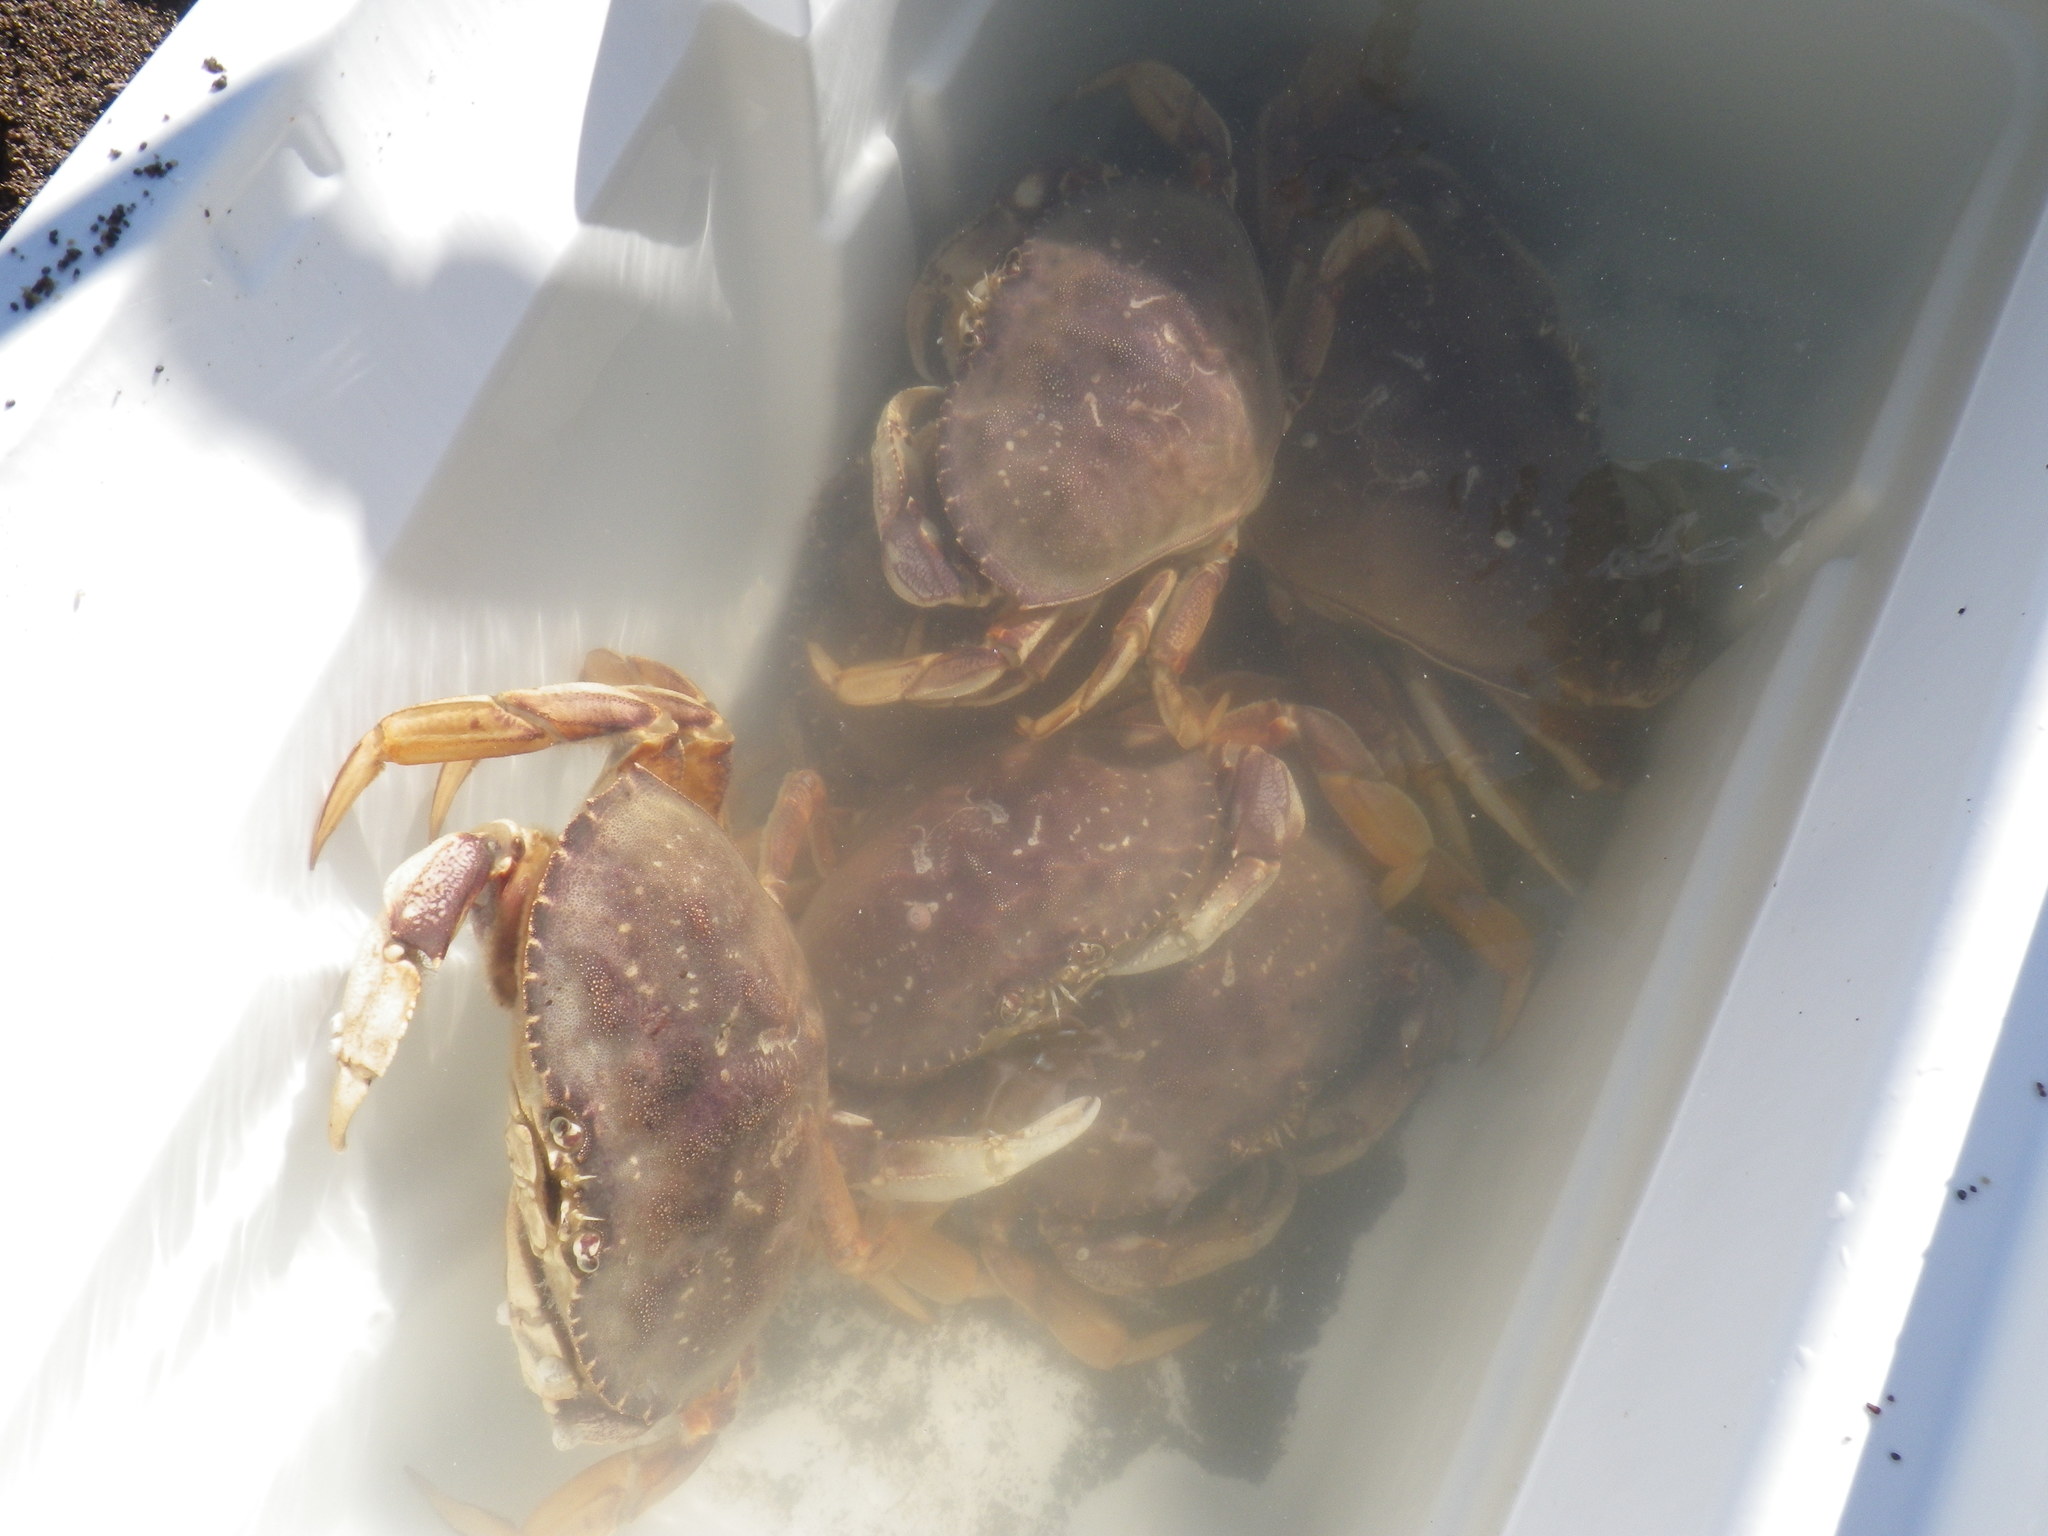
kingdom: Animalia
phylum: Arthropoda
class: Malacostraca
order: Decapoda
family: Cancridae
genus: Metacarcinus
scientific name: Metacarcinus magister
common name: Californian crab
